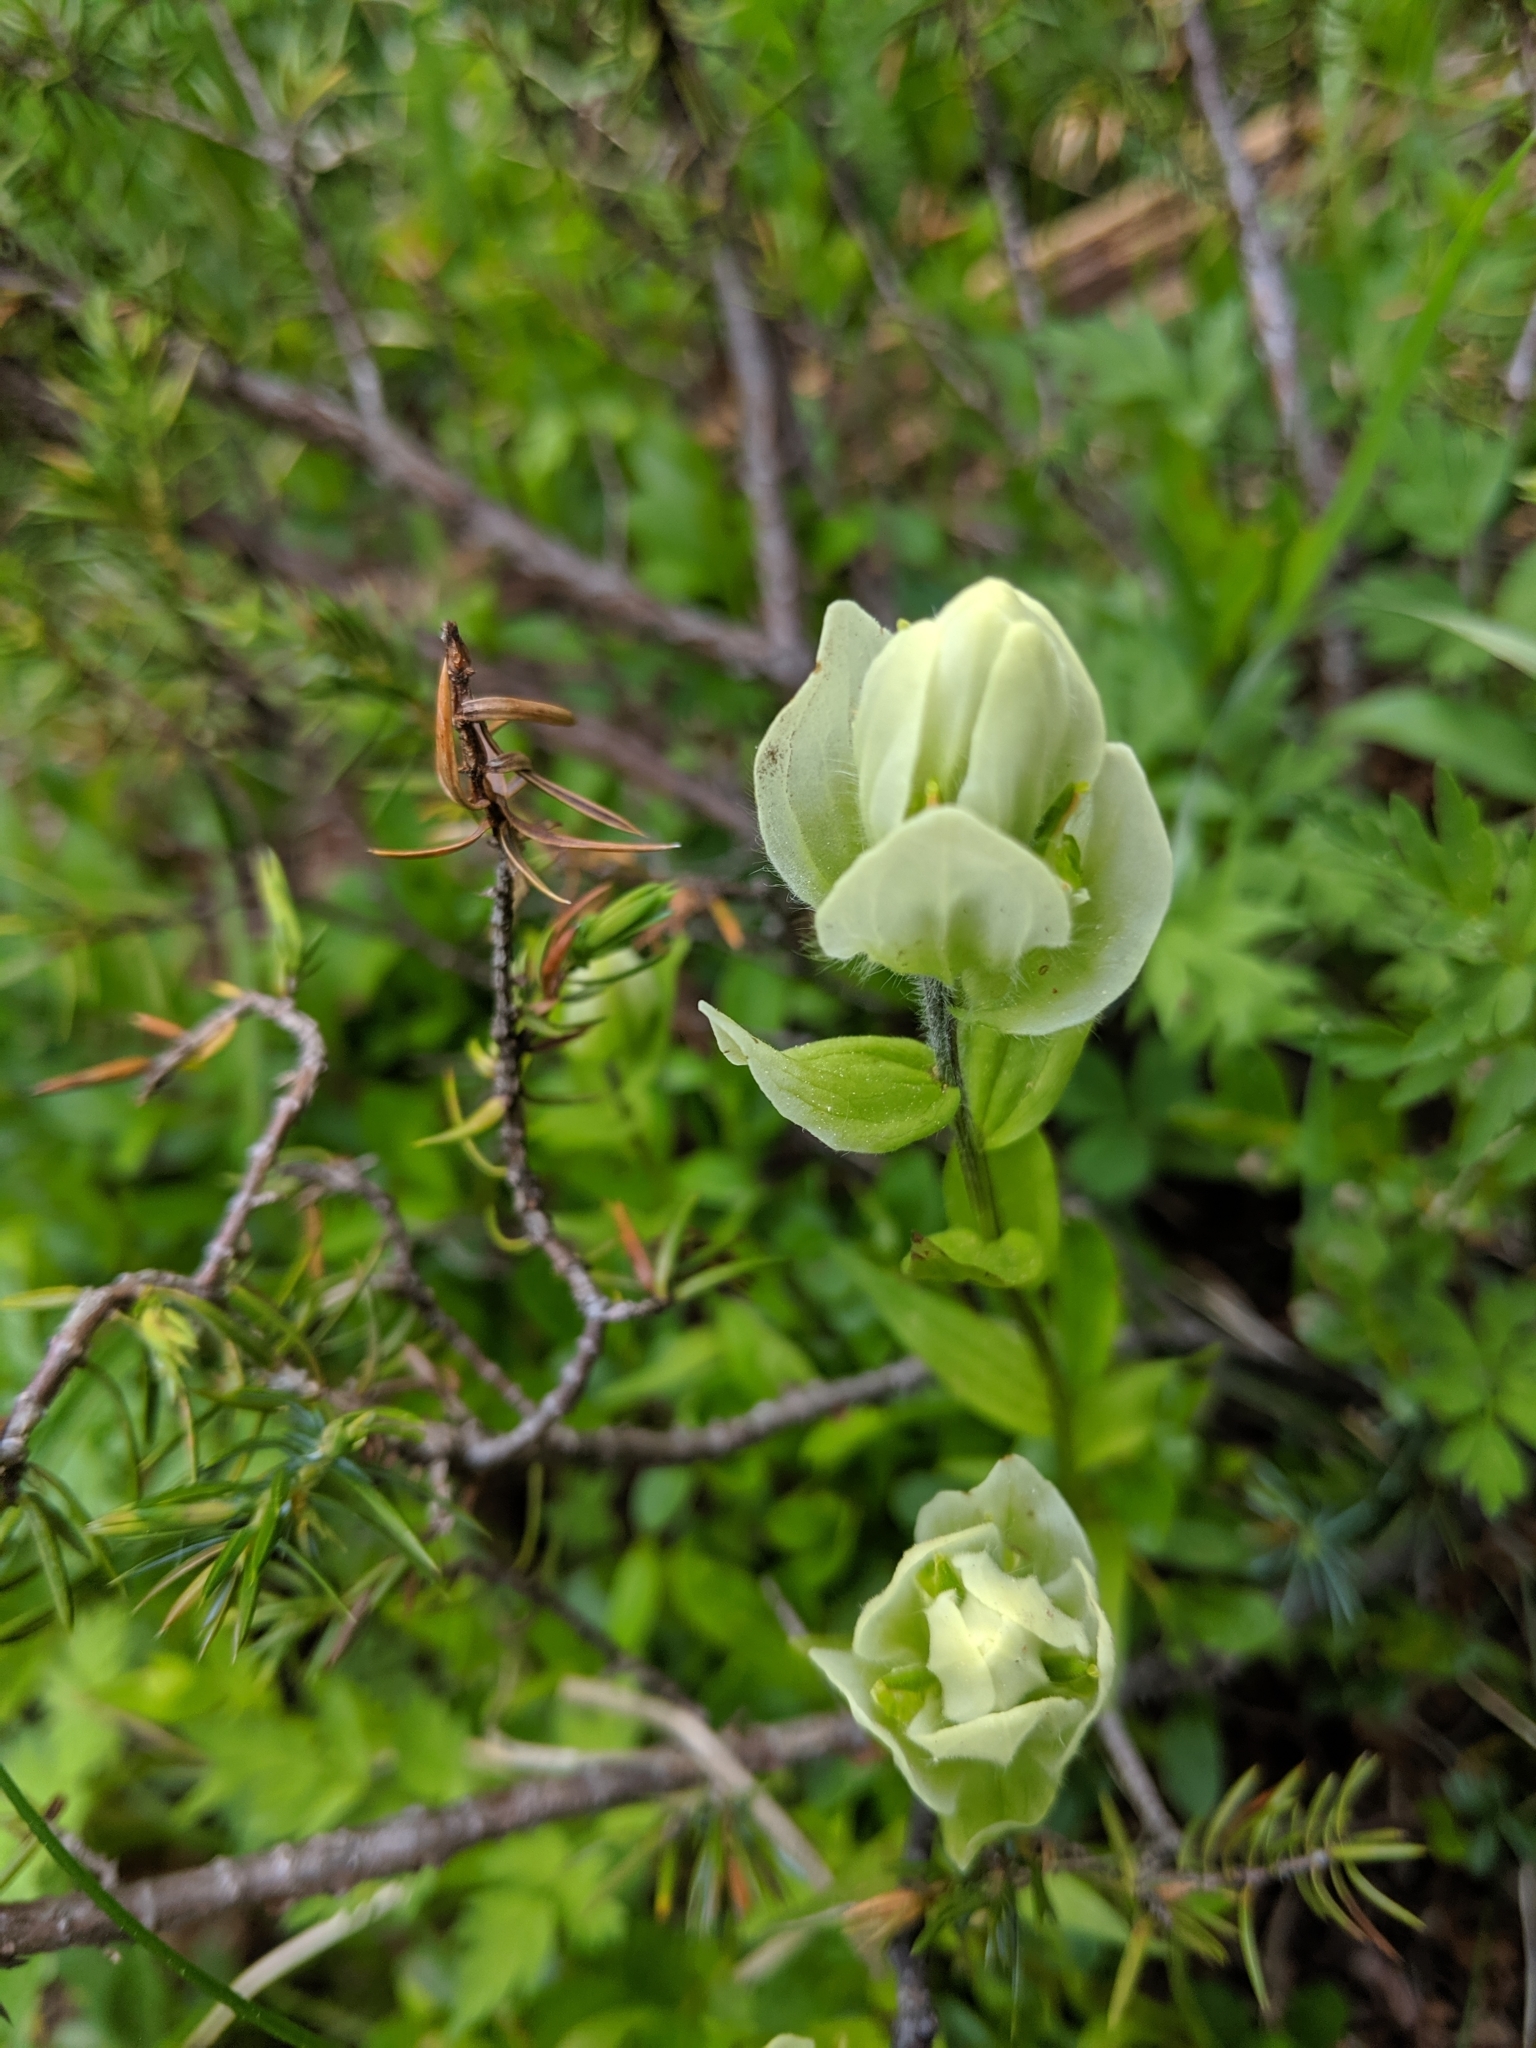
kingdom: Plantae
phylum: Tracheophyta
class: Magnoliopsida
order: Lamiales
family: Orobanchaceae
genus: Castilleja
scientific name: Castilleja septentrionalis
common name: Northeastern paintbrush
